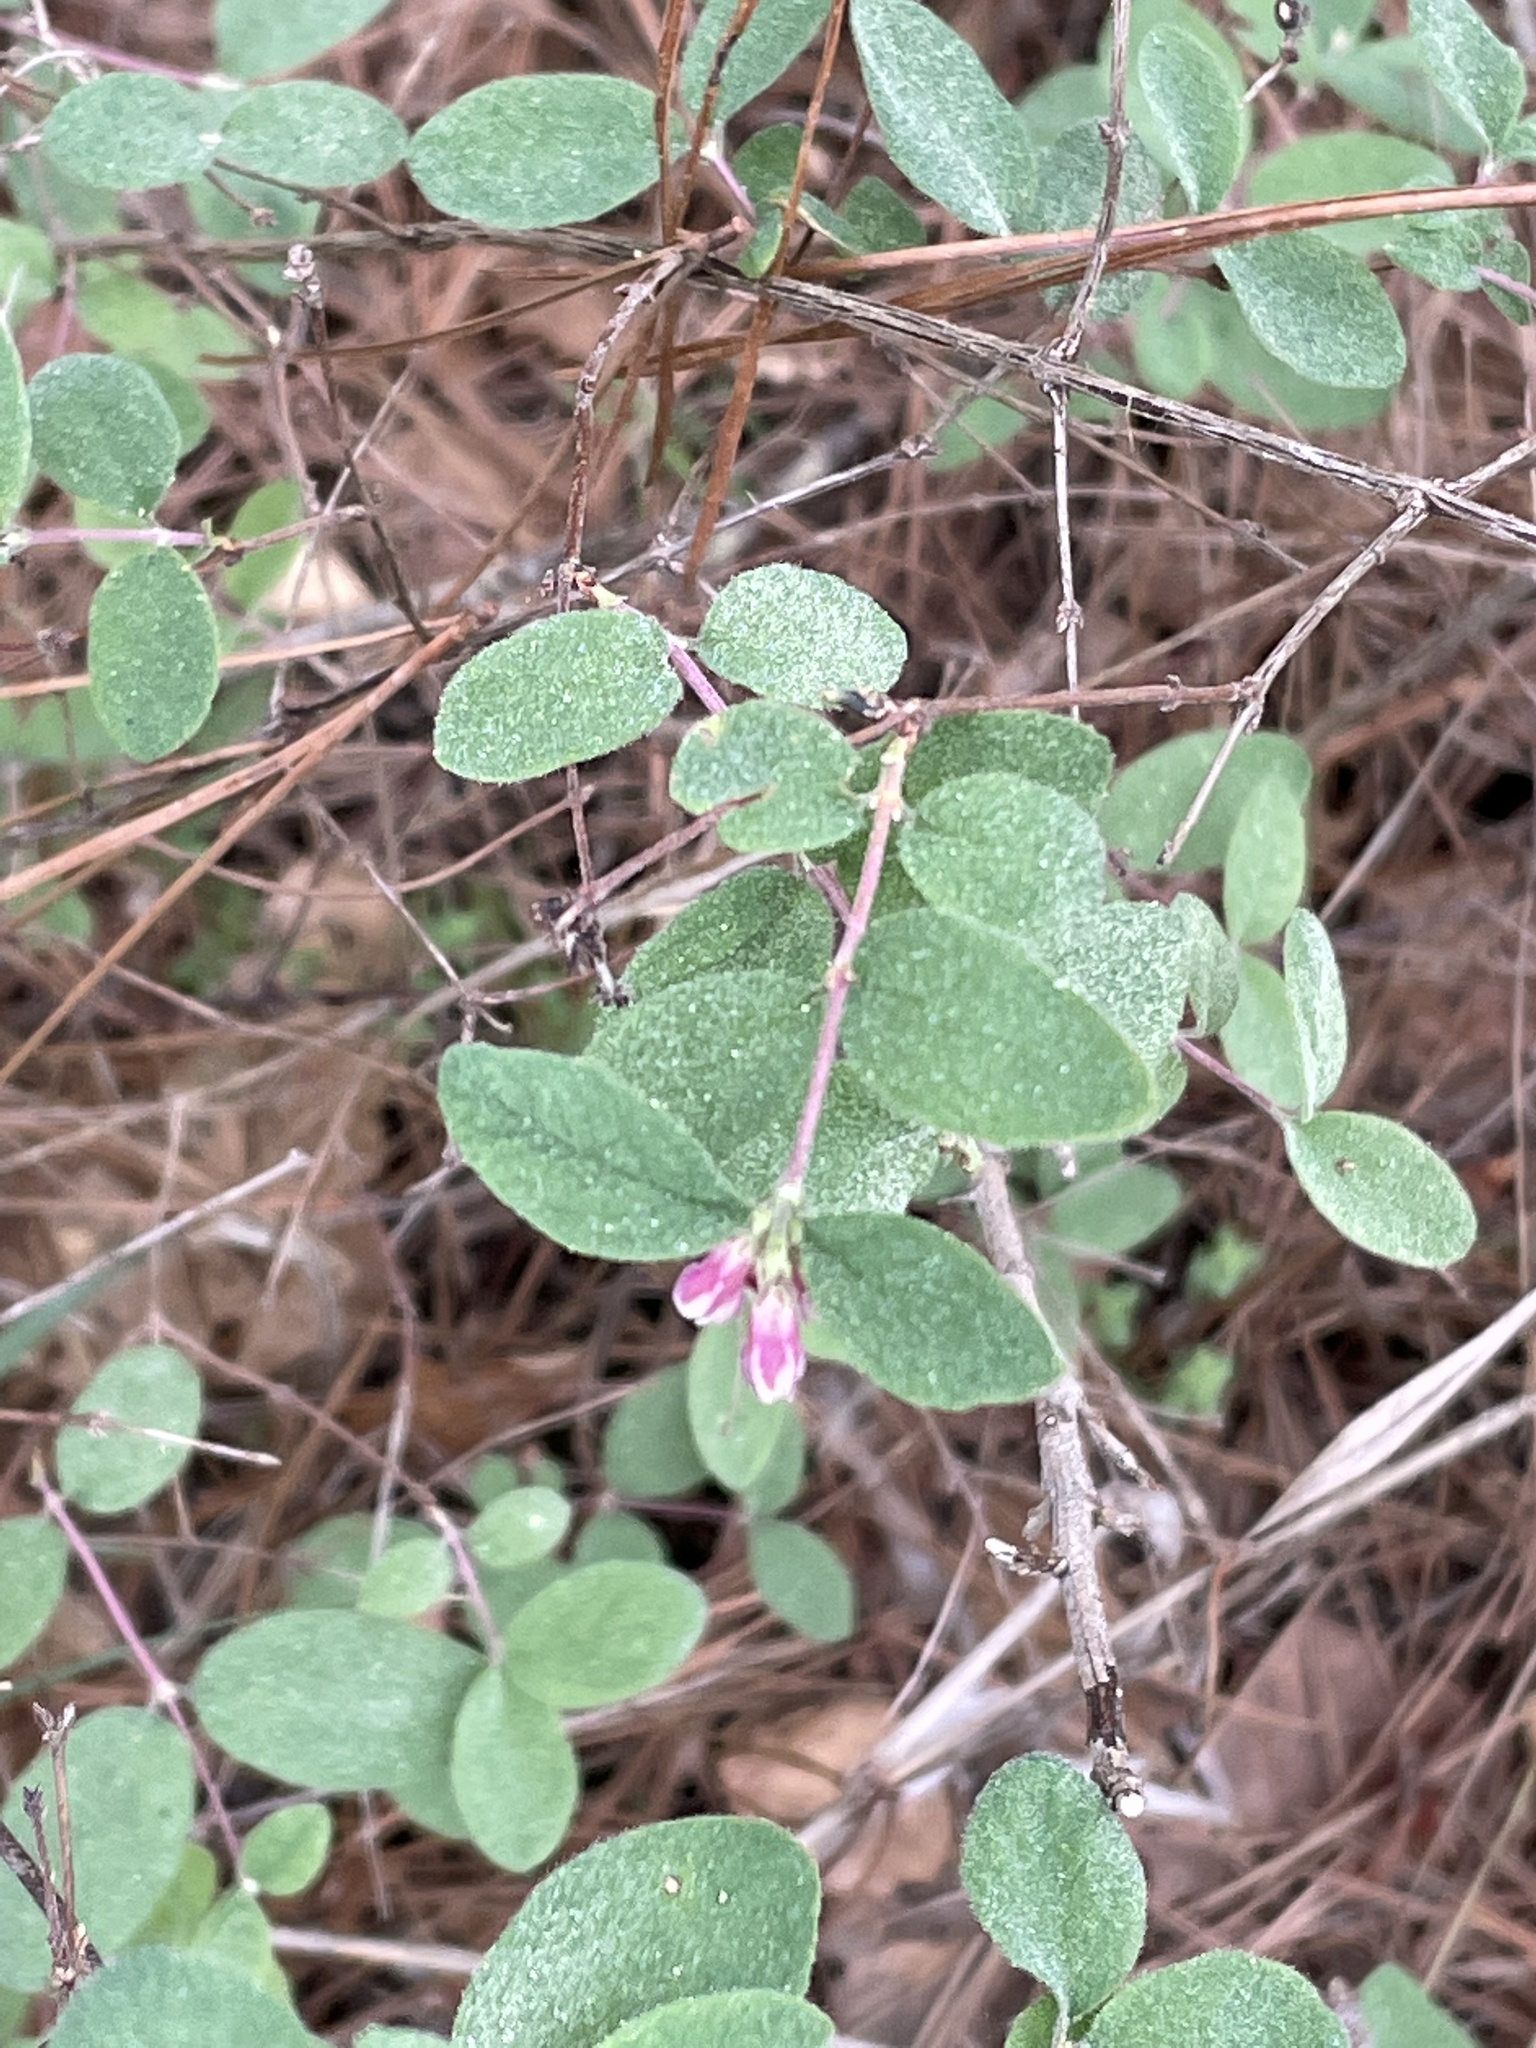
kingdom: Plantae
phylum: Tracheophyta
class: Magnoliopsida
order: Dipsacales
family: Caprifoliaceae
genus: Symphoricarpos
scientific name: Symphoricarpos mollis
